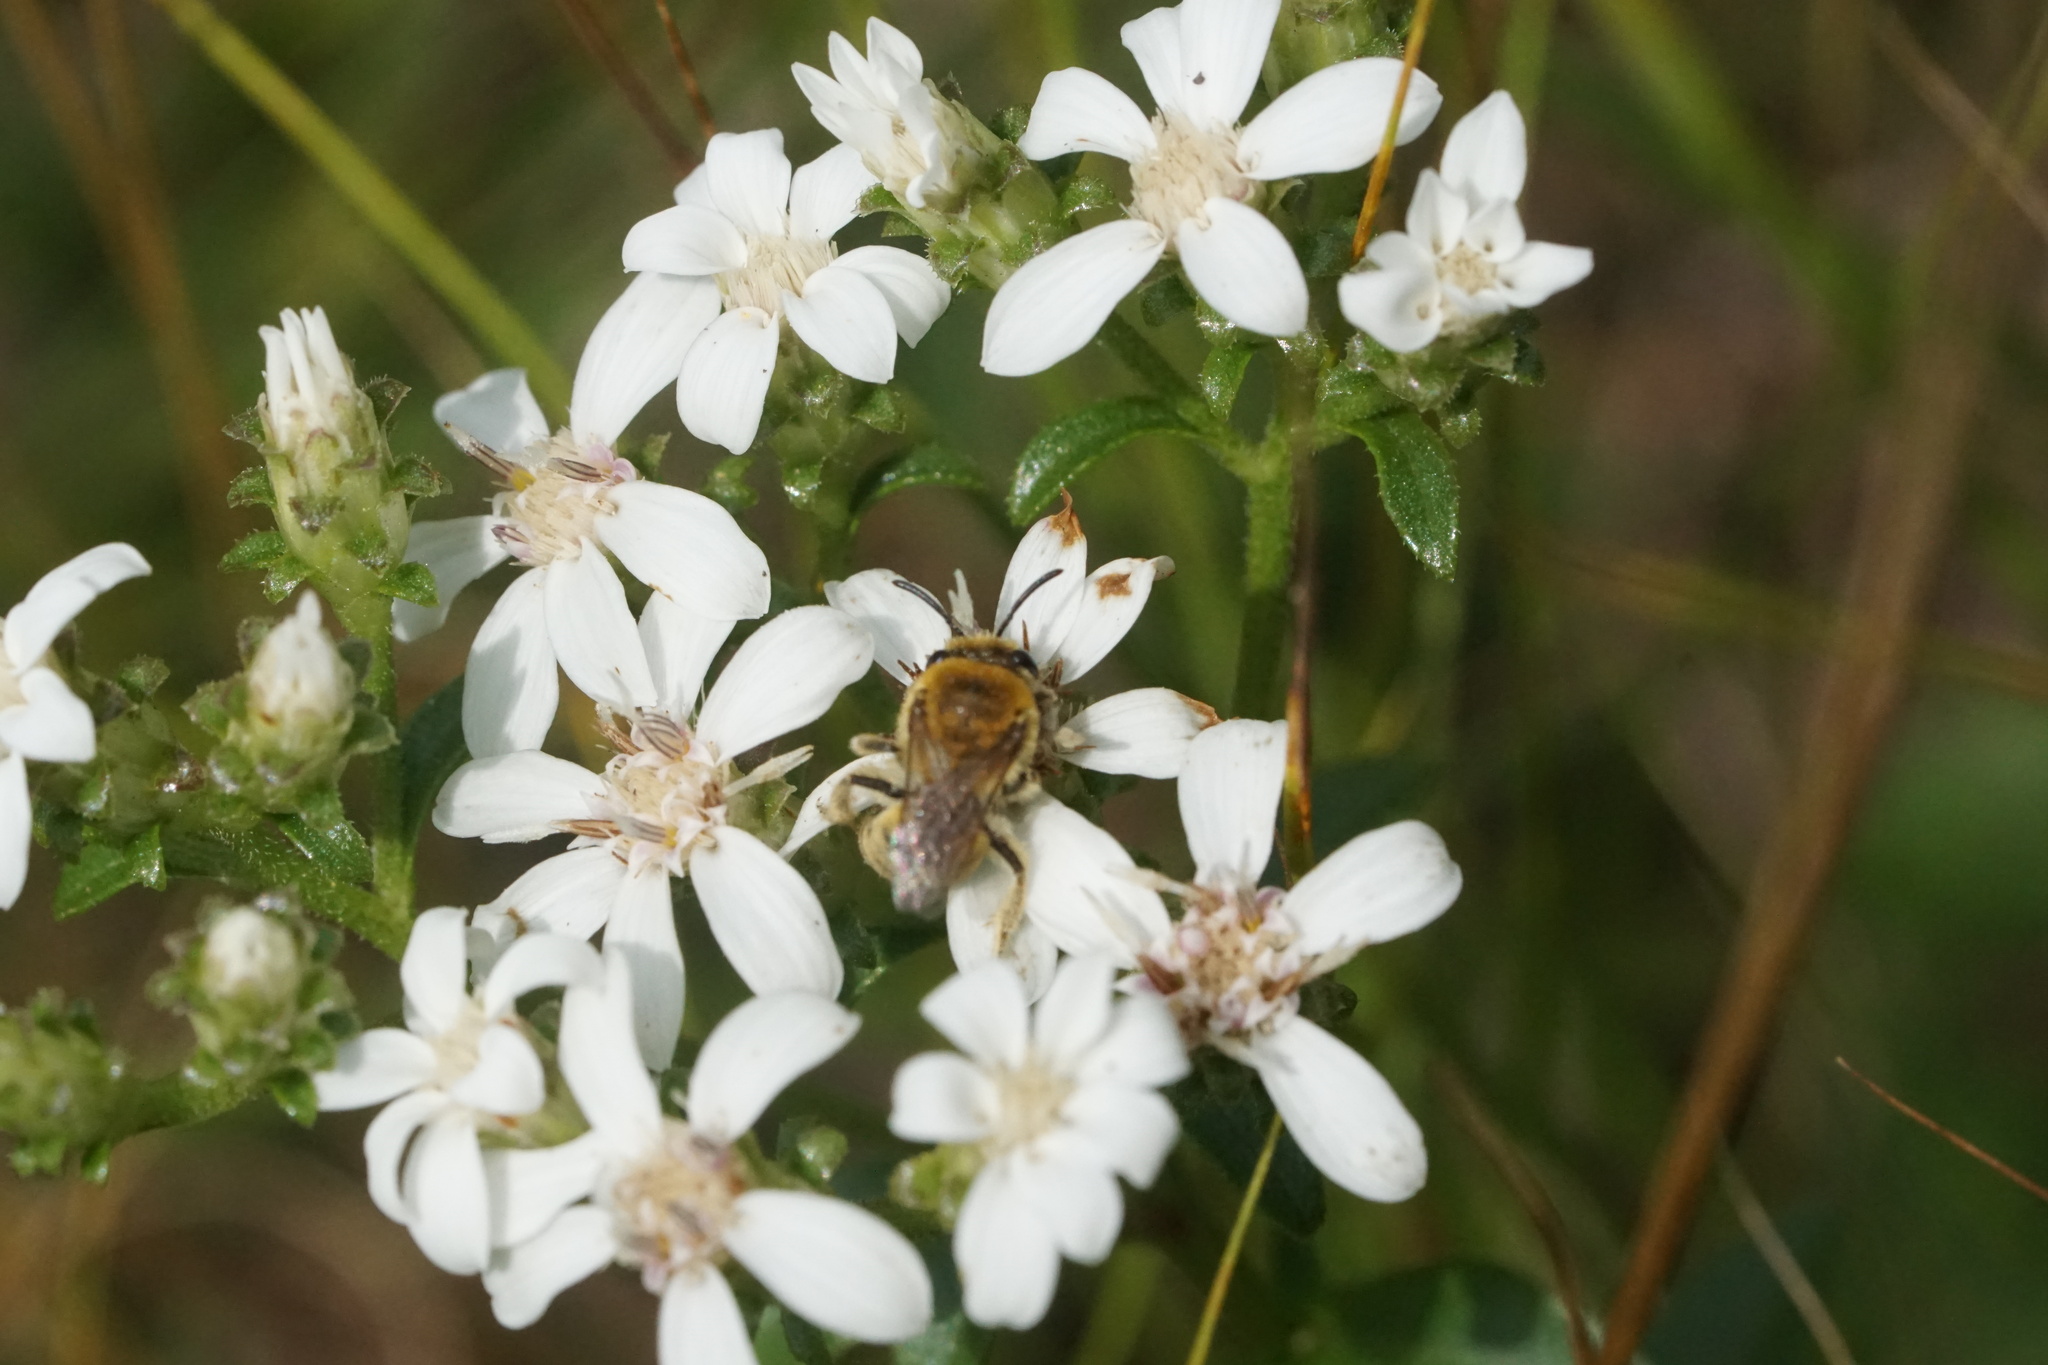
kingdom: Animalia
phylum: Arthropoda
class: Insecta
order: Hymenoptera
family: Colletidae
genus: Colletes
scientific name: Colletes solidaginis
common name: Goldenrod cellophane bee
